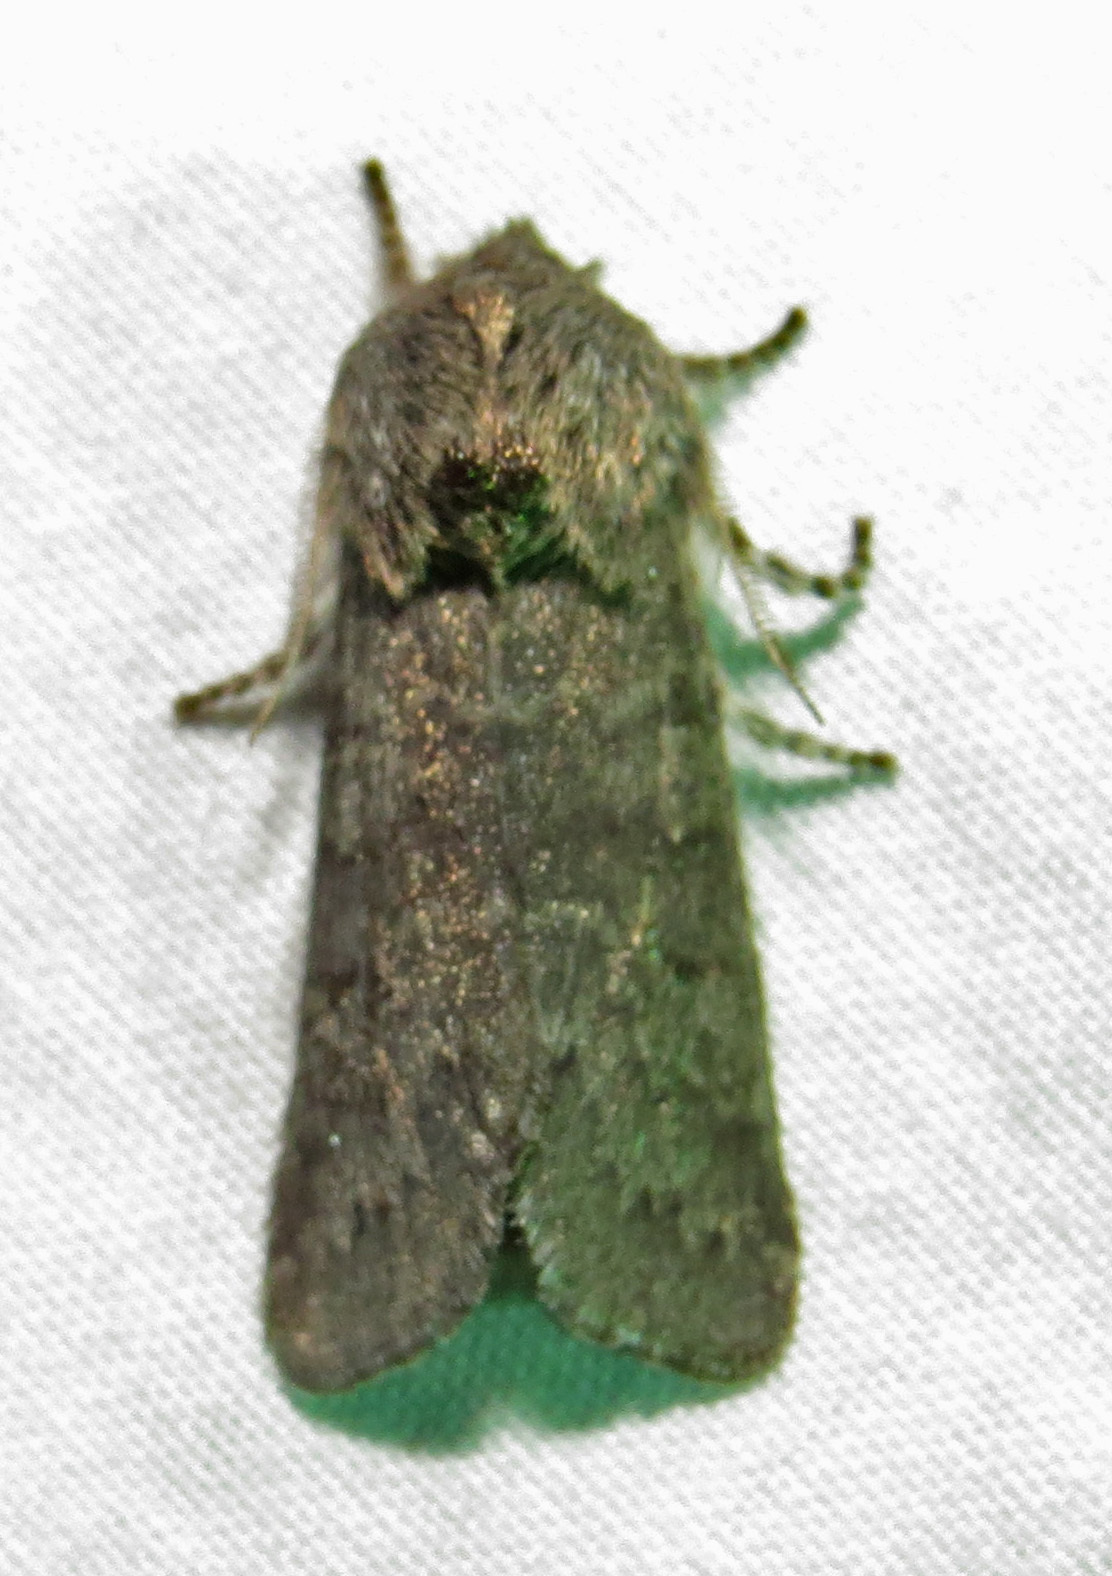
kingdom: Animalia
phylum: Arthropoda
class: Insecta
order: Lepidoptera
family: Noctuidae
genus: Psaphida
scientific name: Psaphida rolandi
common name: Roland's sallow
